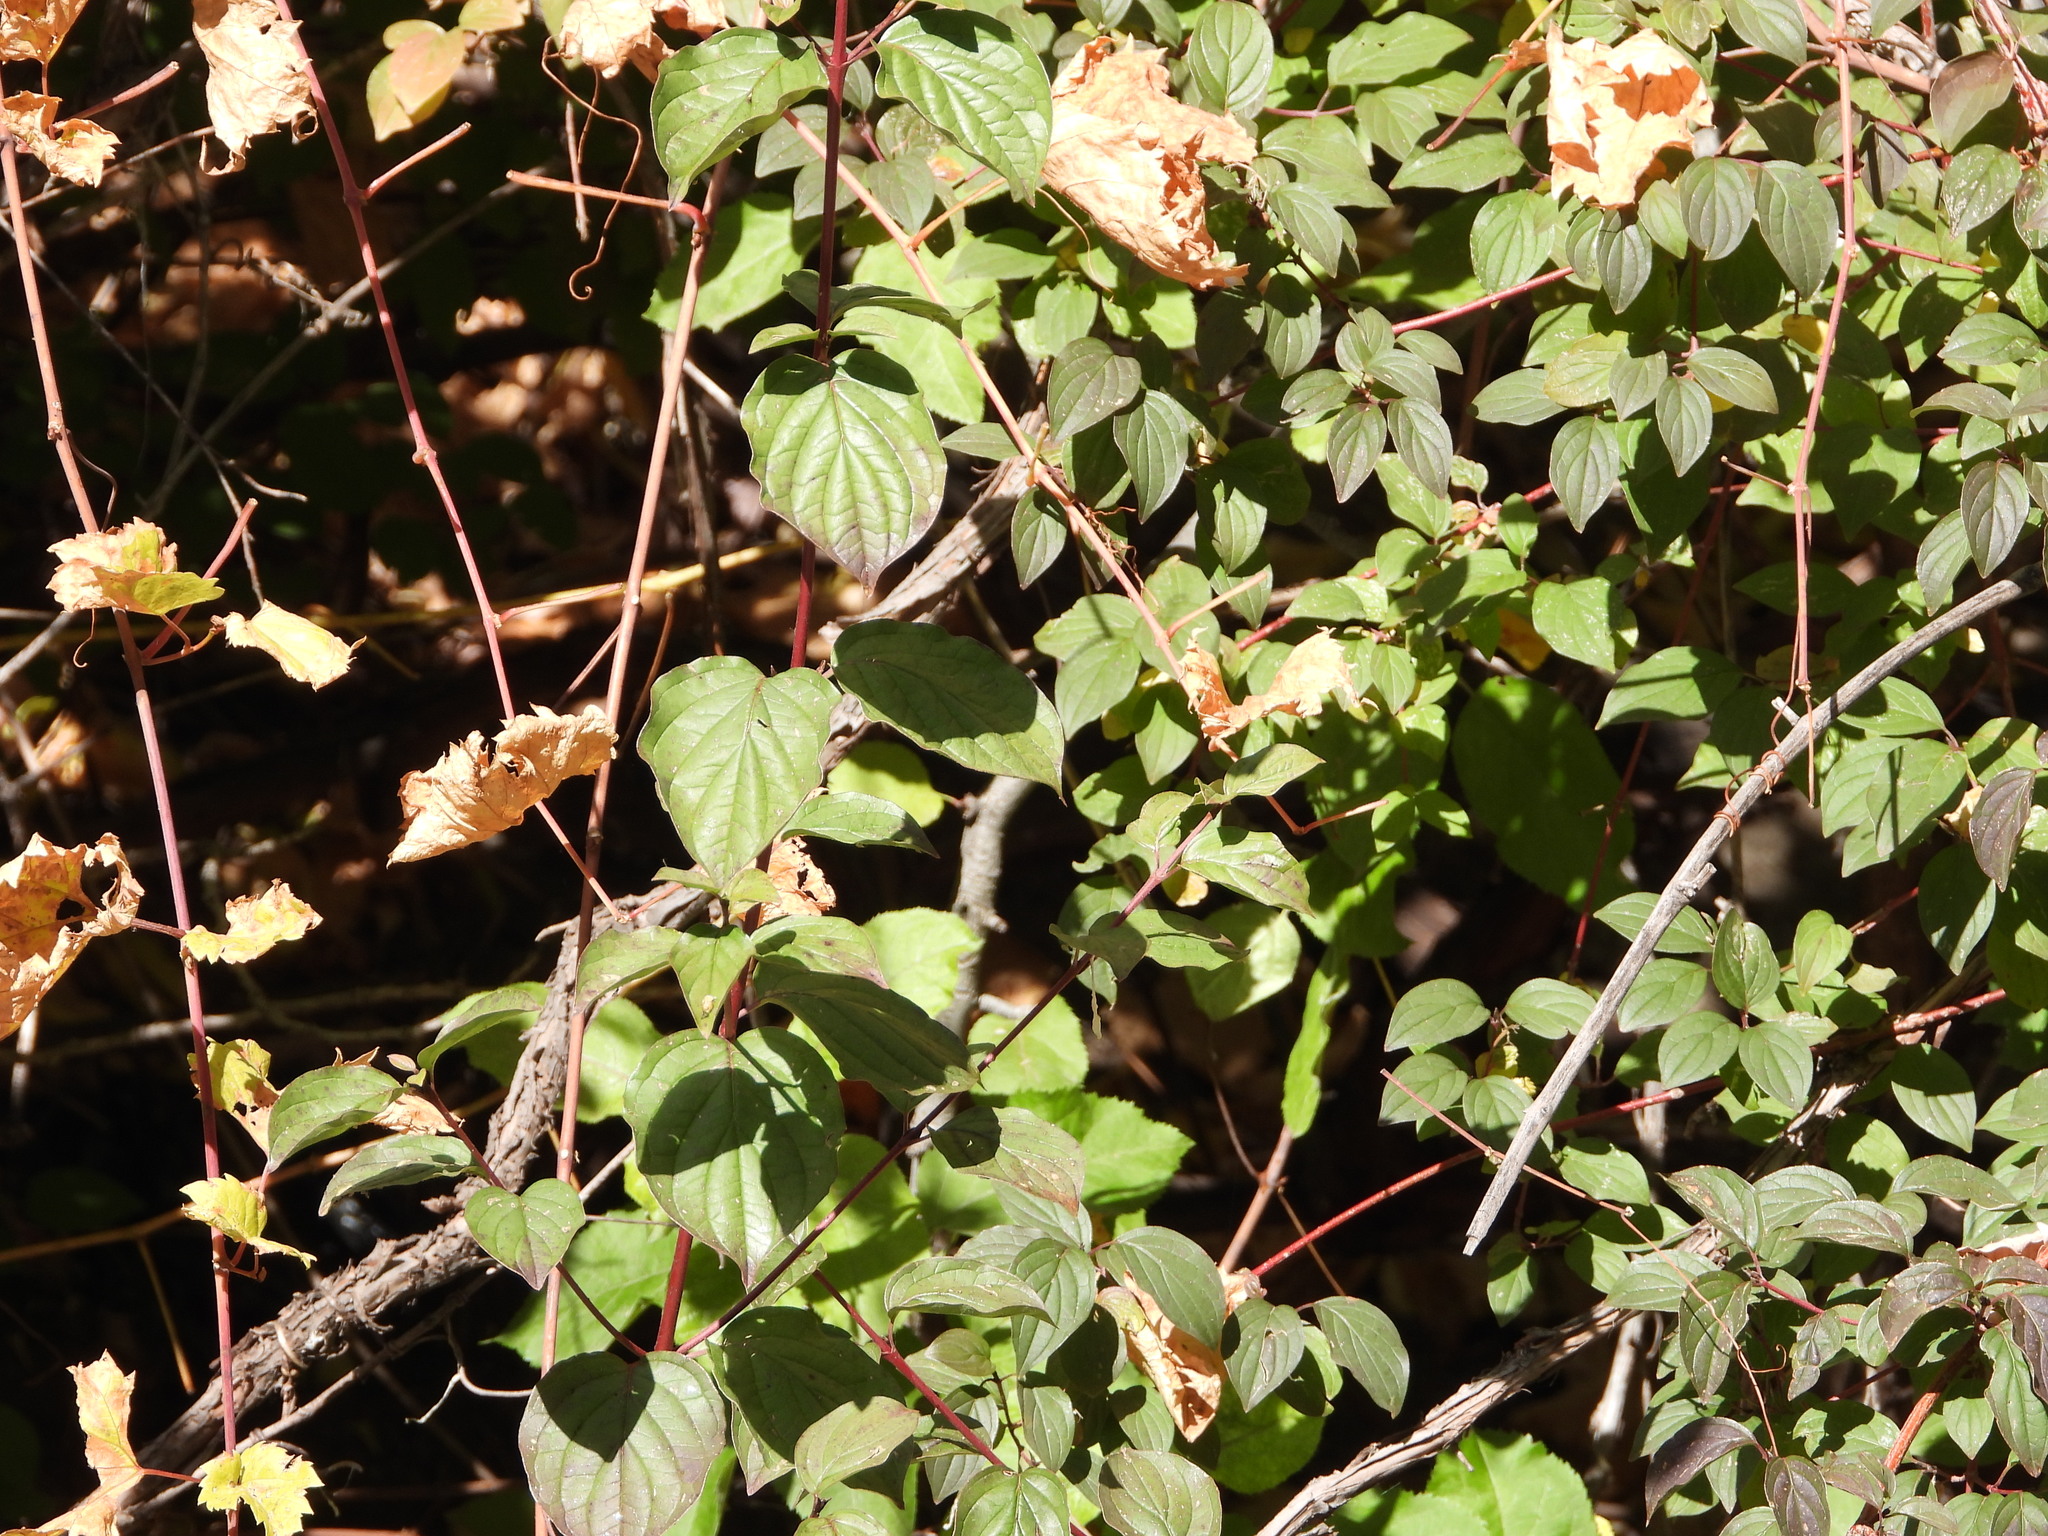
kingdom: Plantae
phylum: Tracheophyta
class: Magnoliopsida
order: Cornales
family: Cornaceae
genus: Cornus
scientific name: Cornus sericea
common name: Red-osier dogwood
